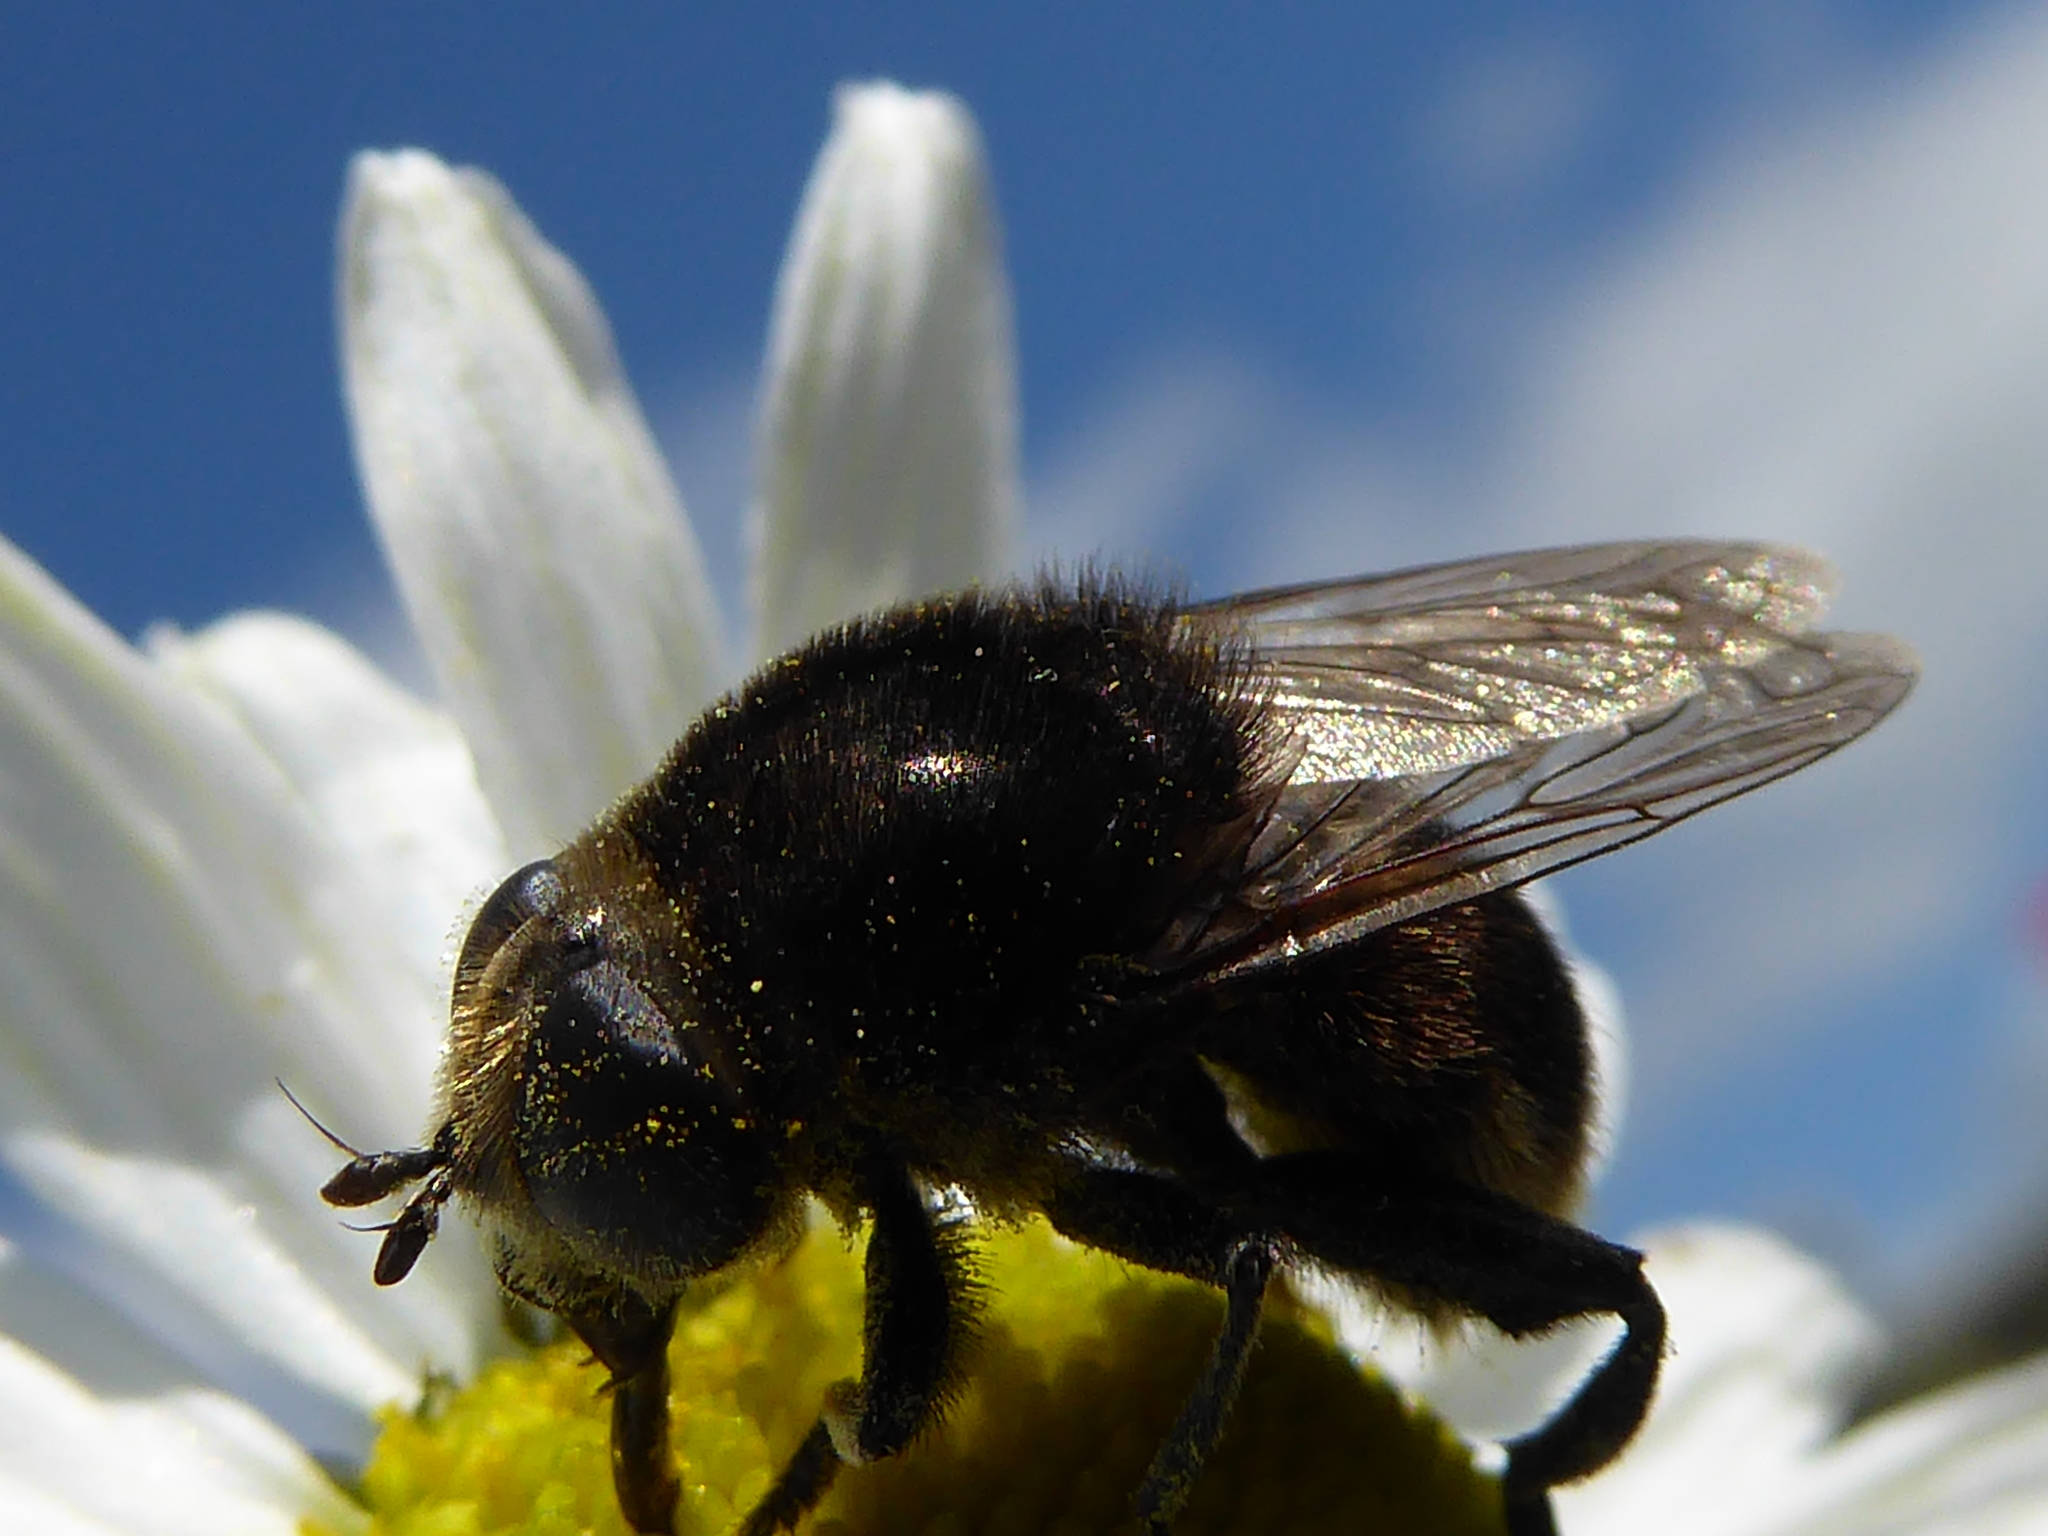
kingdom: Animalia
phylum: Arthropoda
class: Insecta
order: Diptera
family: Syrphidae
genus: Merodon
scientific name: Merodon equestris
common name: Greater bulb-fly
